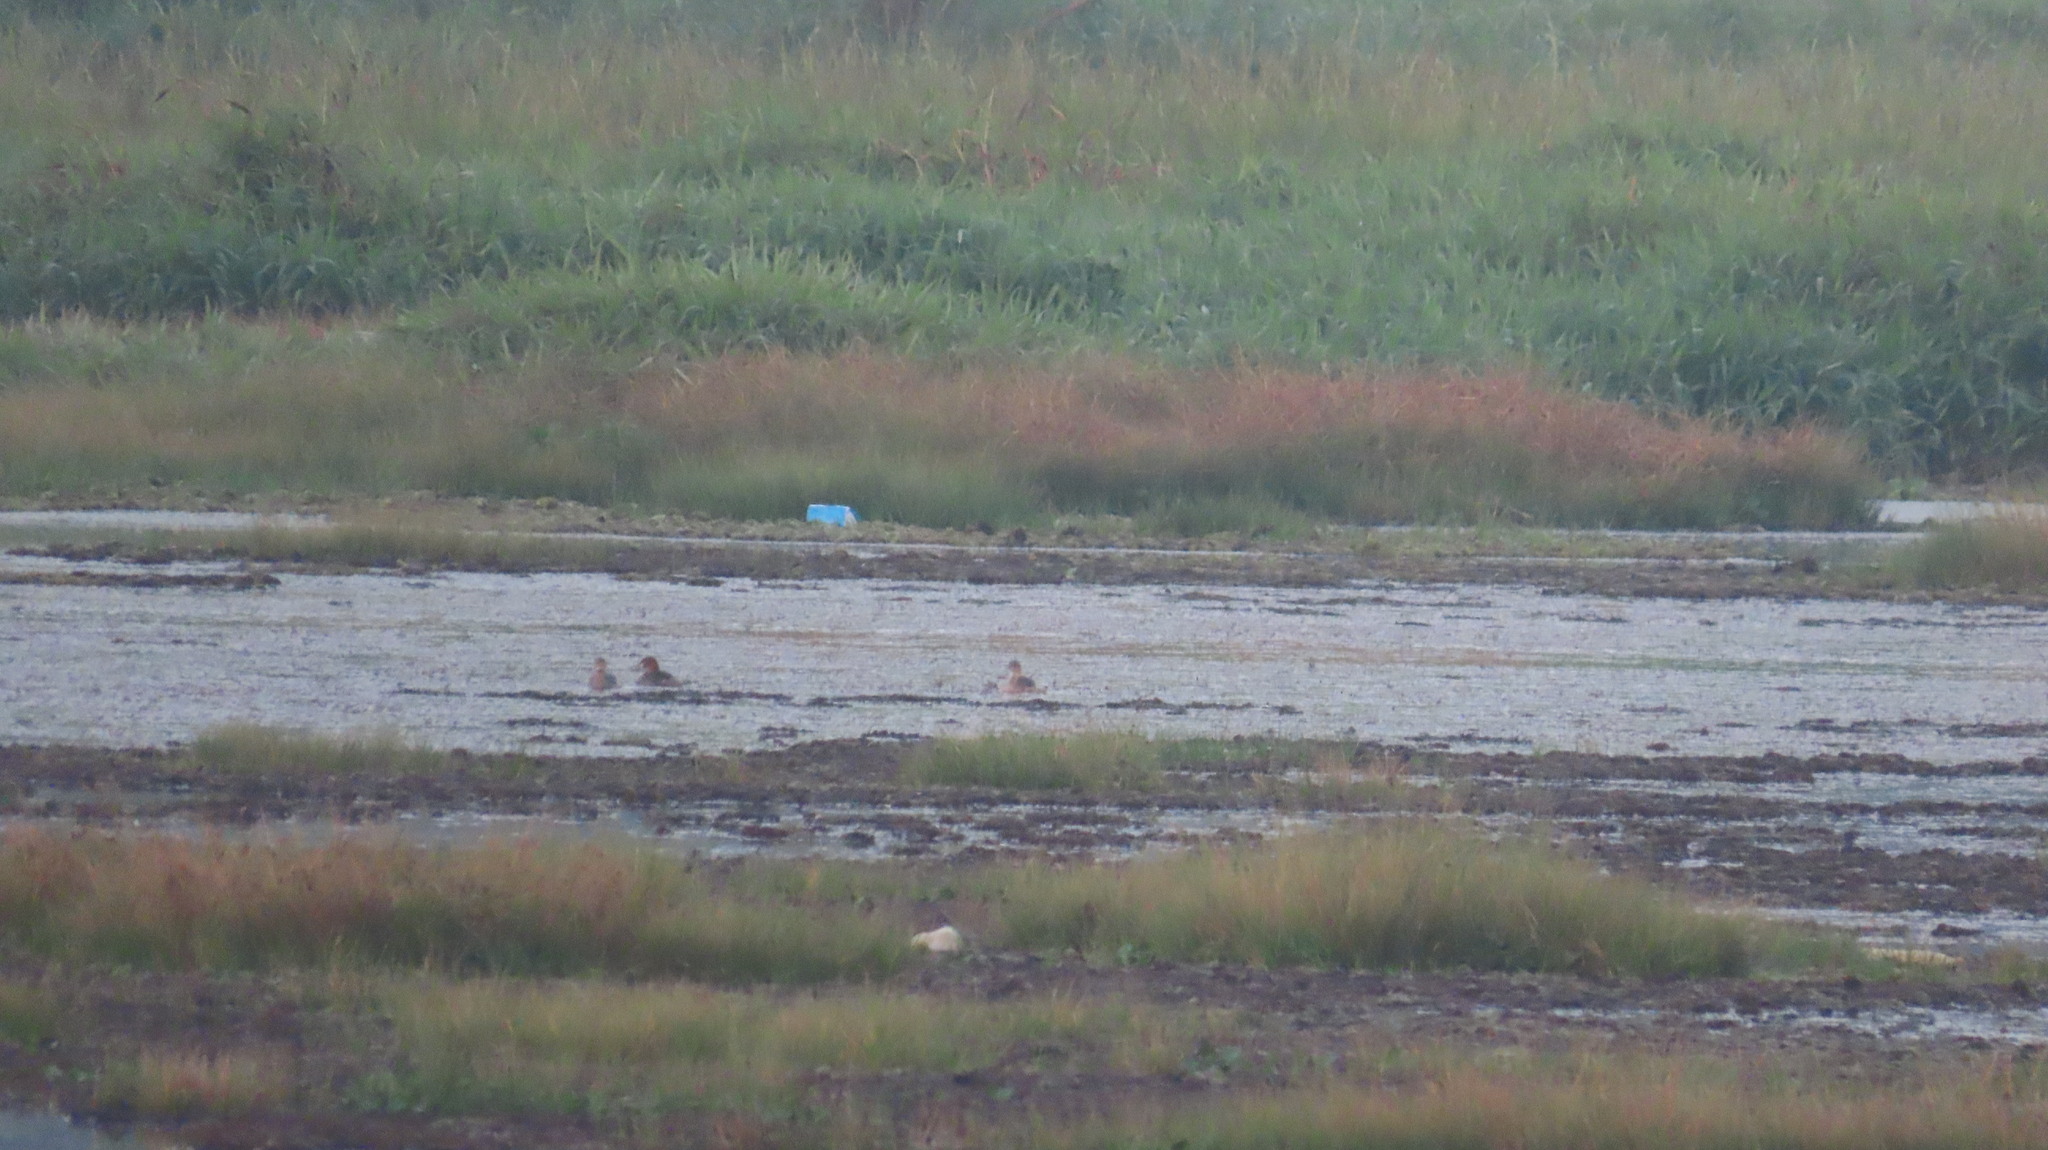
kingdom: Animalia
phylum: Chordata
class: Aves
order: Podicipediformes
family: Podicipedidae
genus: Tachybaptus
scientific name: Tachybaptus ruficollis
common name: Little grebe
